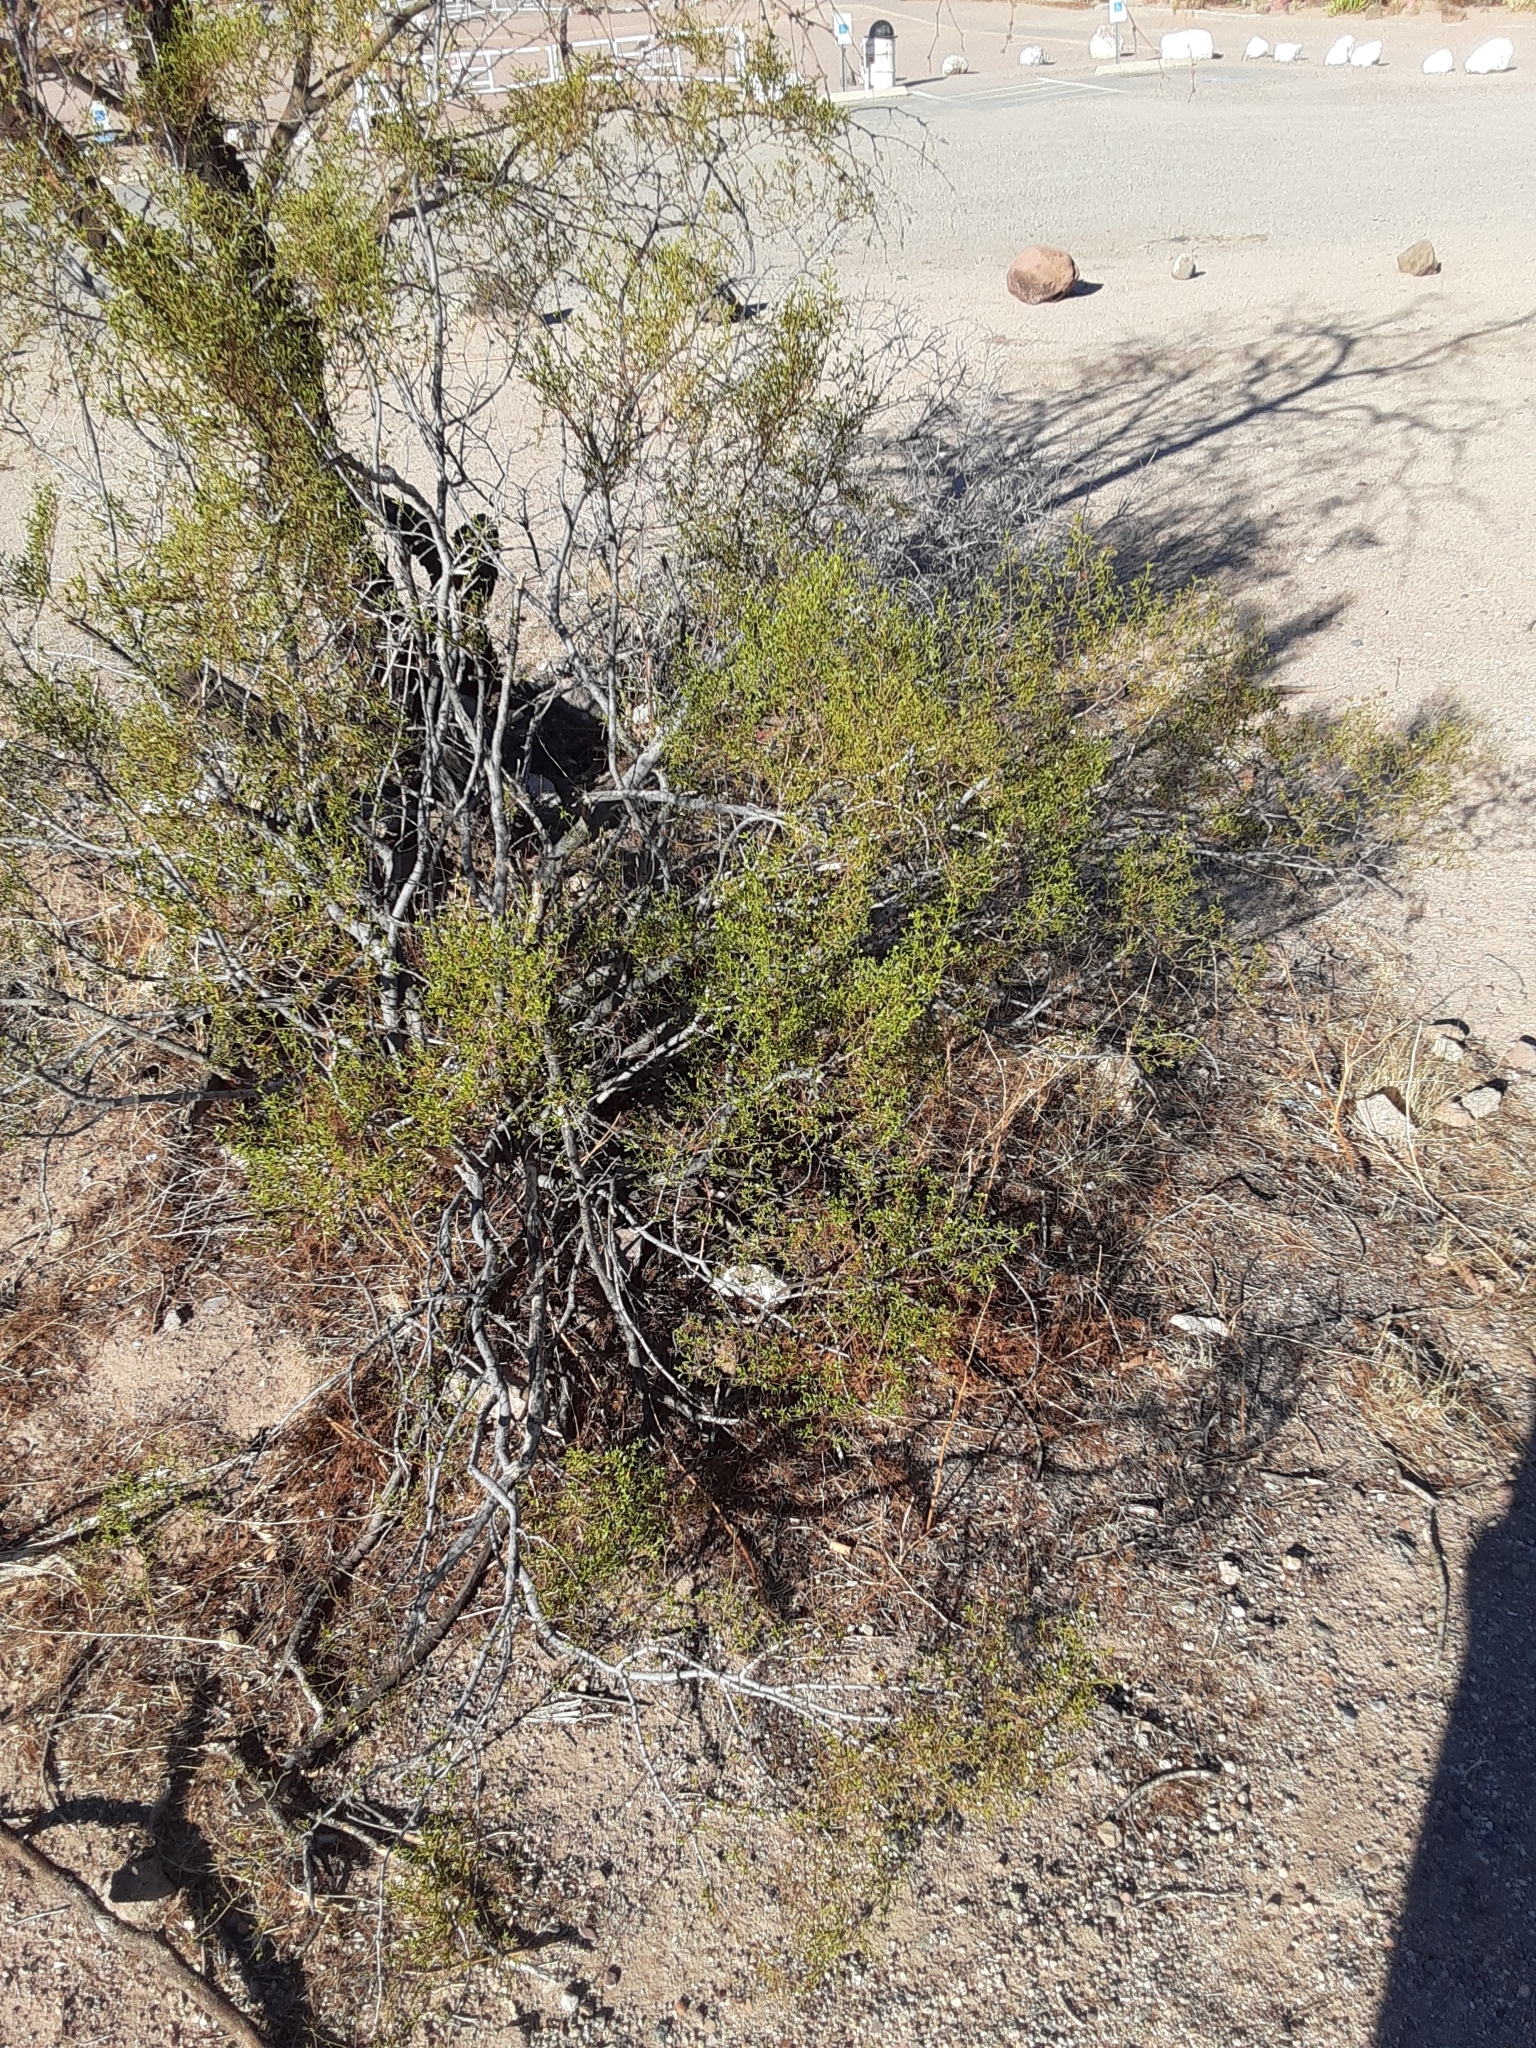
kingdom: Plantae
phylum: Tracheophyta
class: Magnoliopsida
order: Zygophyllales
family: Zygophyllaceae
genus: Larrea
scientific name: Larrea tridentata
